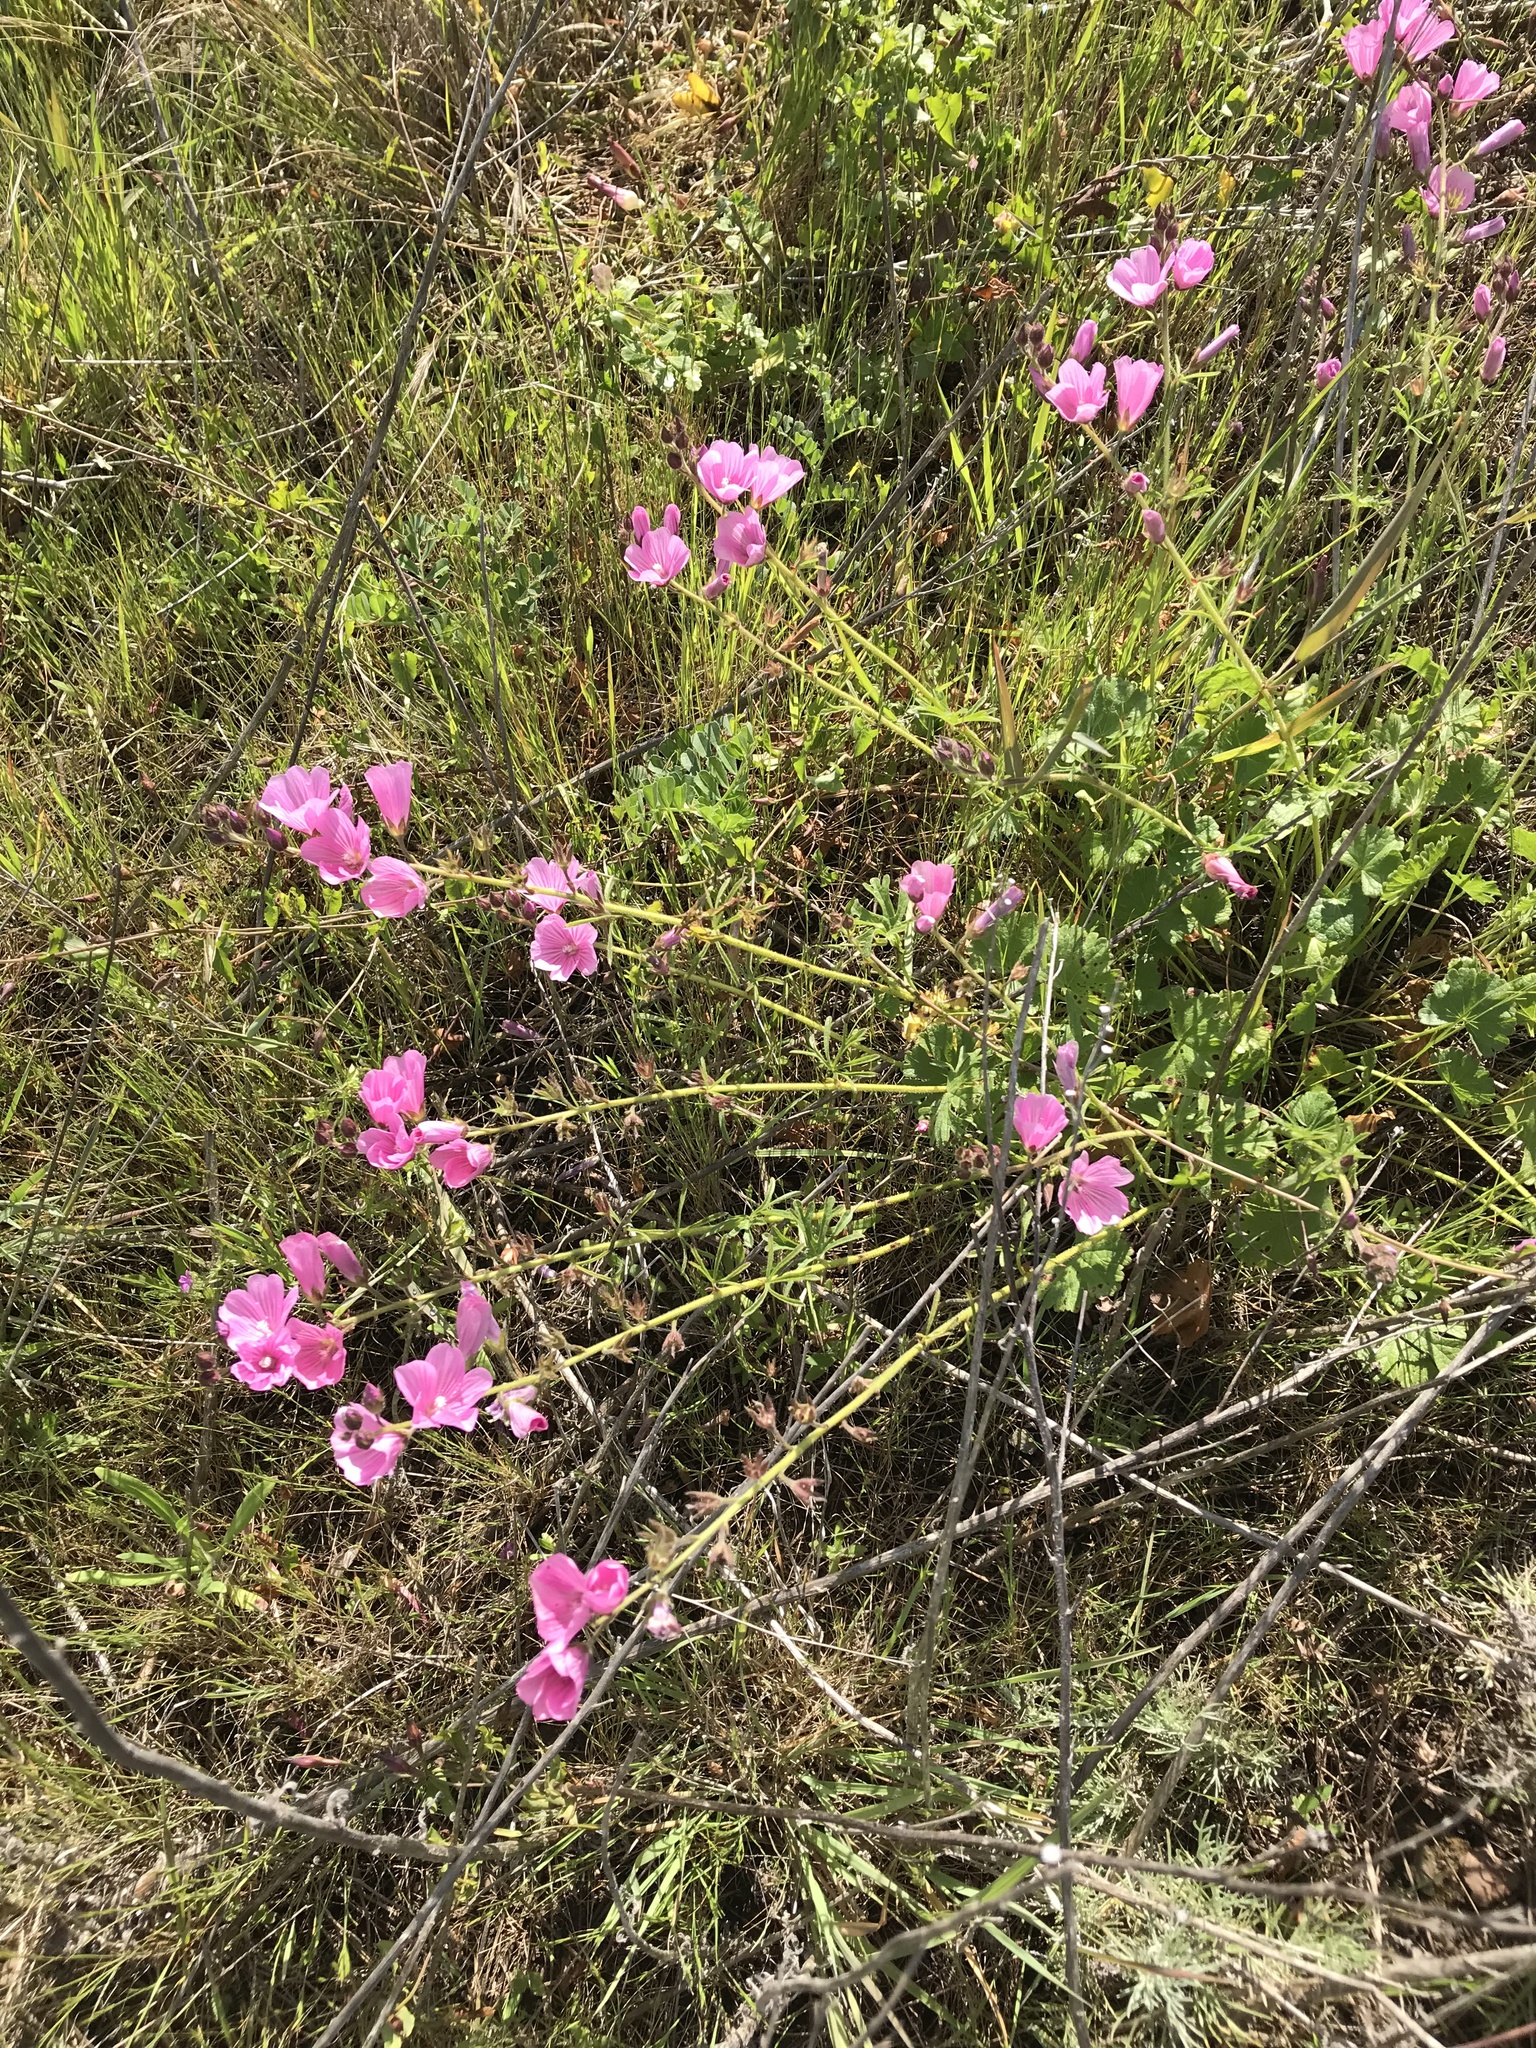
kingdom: Plantae
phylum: Tracheophyta
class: Magnoliopsida
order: Malvales
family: Malvaceae
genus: Sidalcea
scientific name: Sidalcea malviflora
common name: Greek mallow
